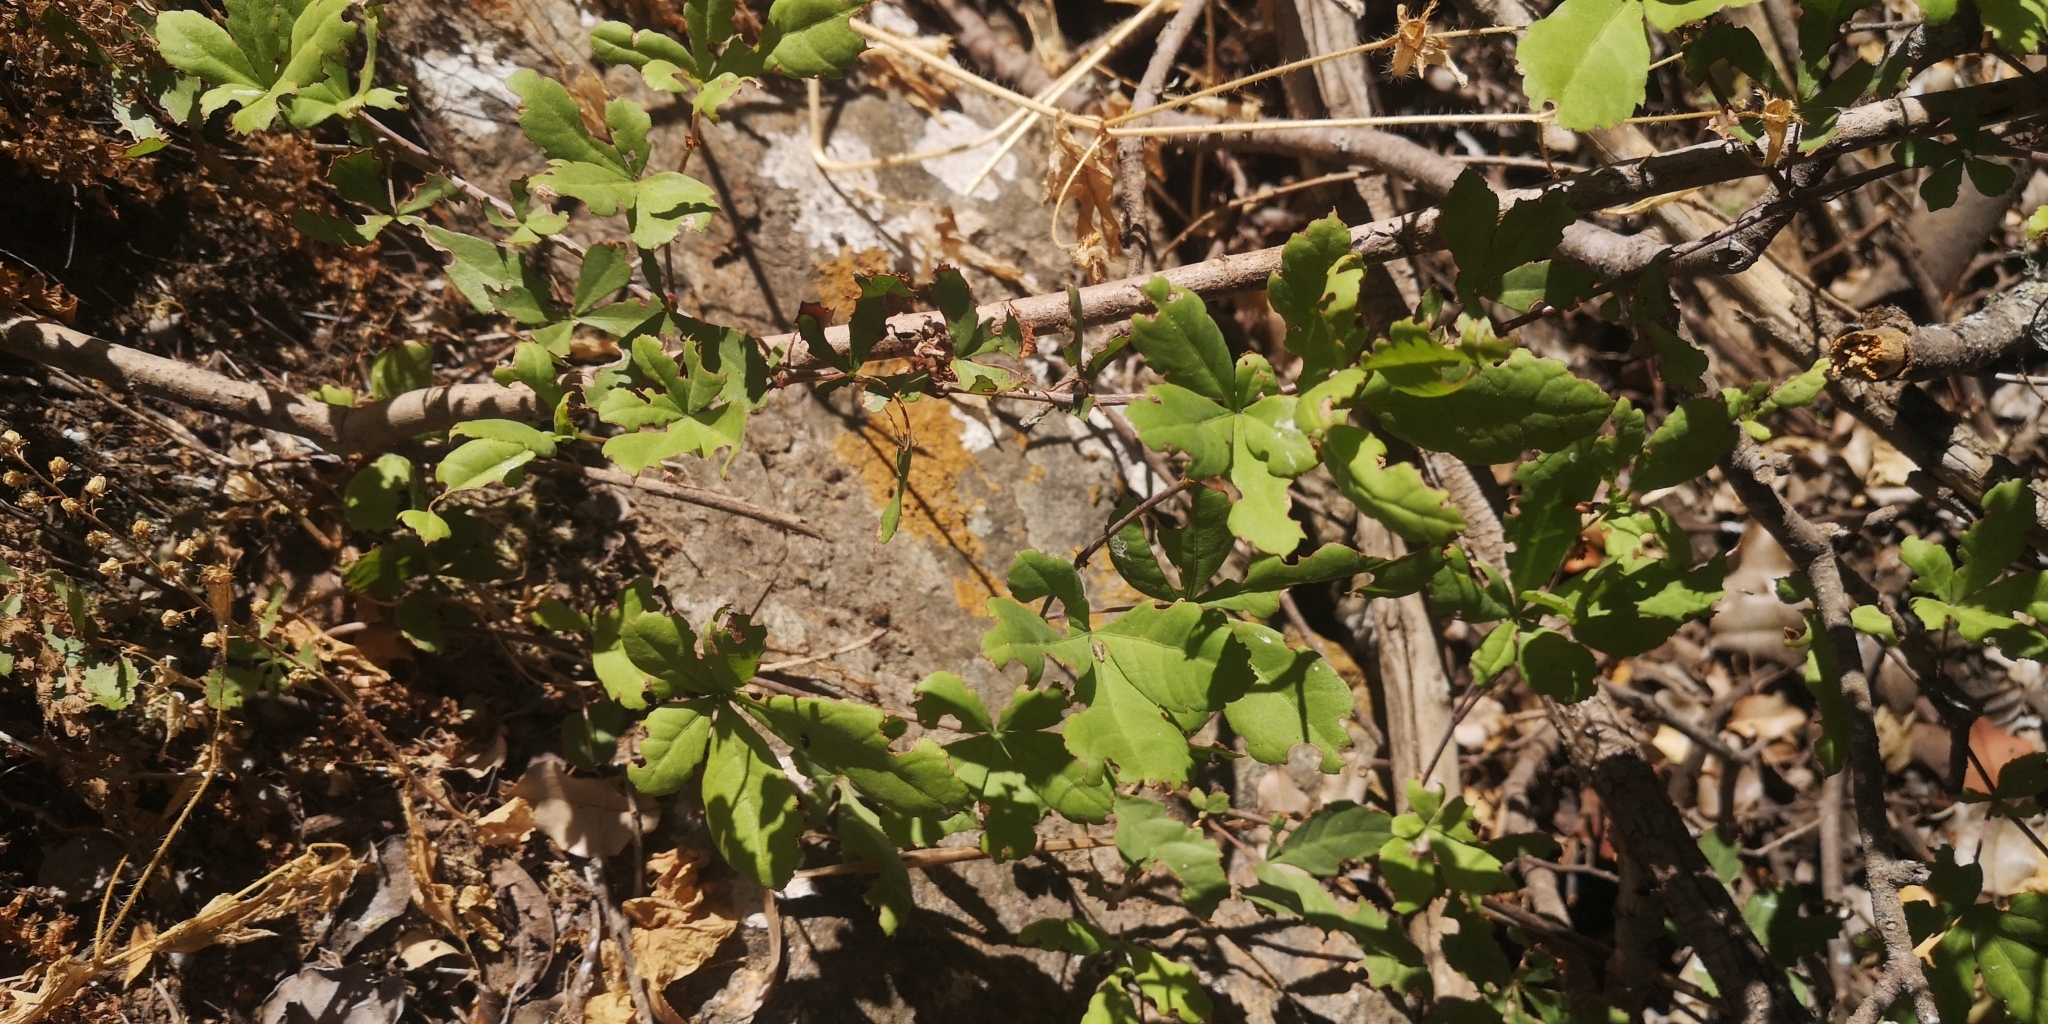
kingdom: Plantae
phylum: Tracheophyta
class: Magnoliopsida
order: Vitales
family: Vitaceae
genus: Clematicissus
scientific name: Clematicissus striata
